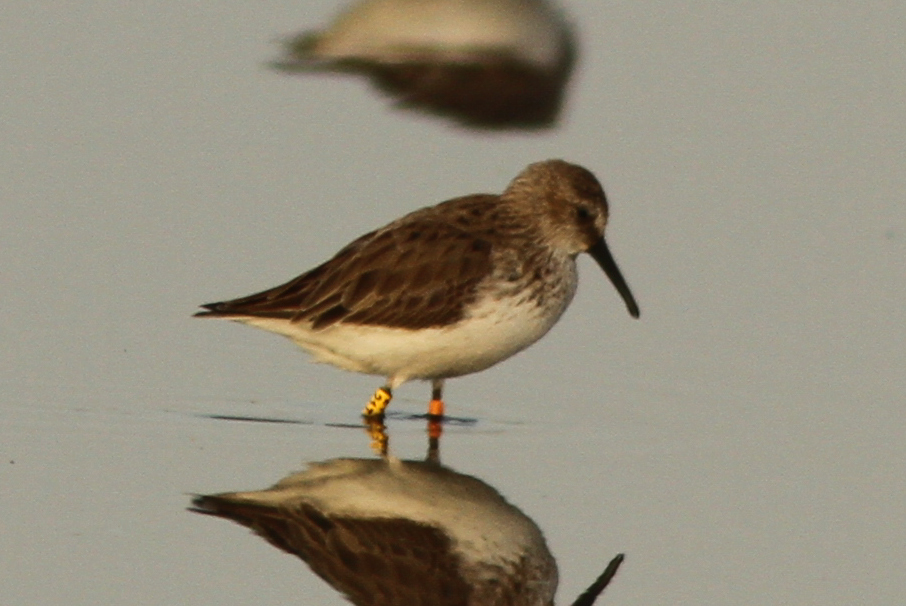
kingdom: Animalia
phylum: Chordata
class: Aves
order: Charadriiformes
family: Scolopacidae
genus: Calidris
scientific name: Calidris alpina
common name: Dunlin
